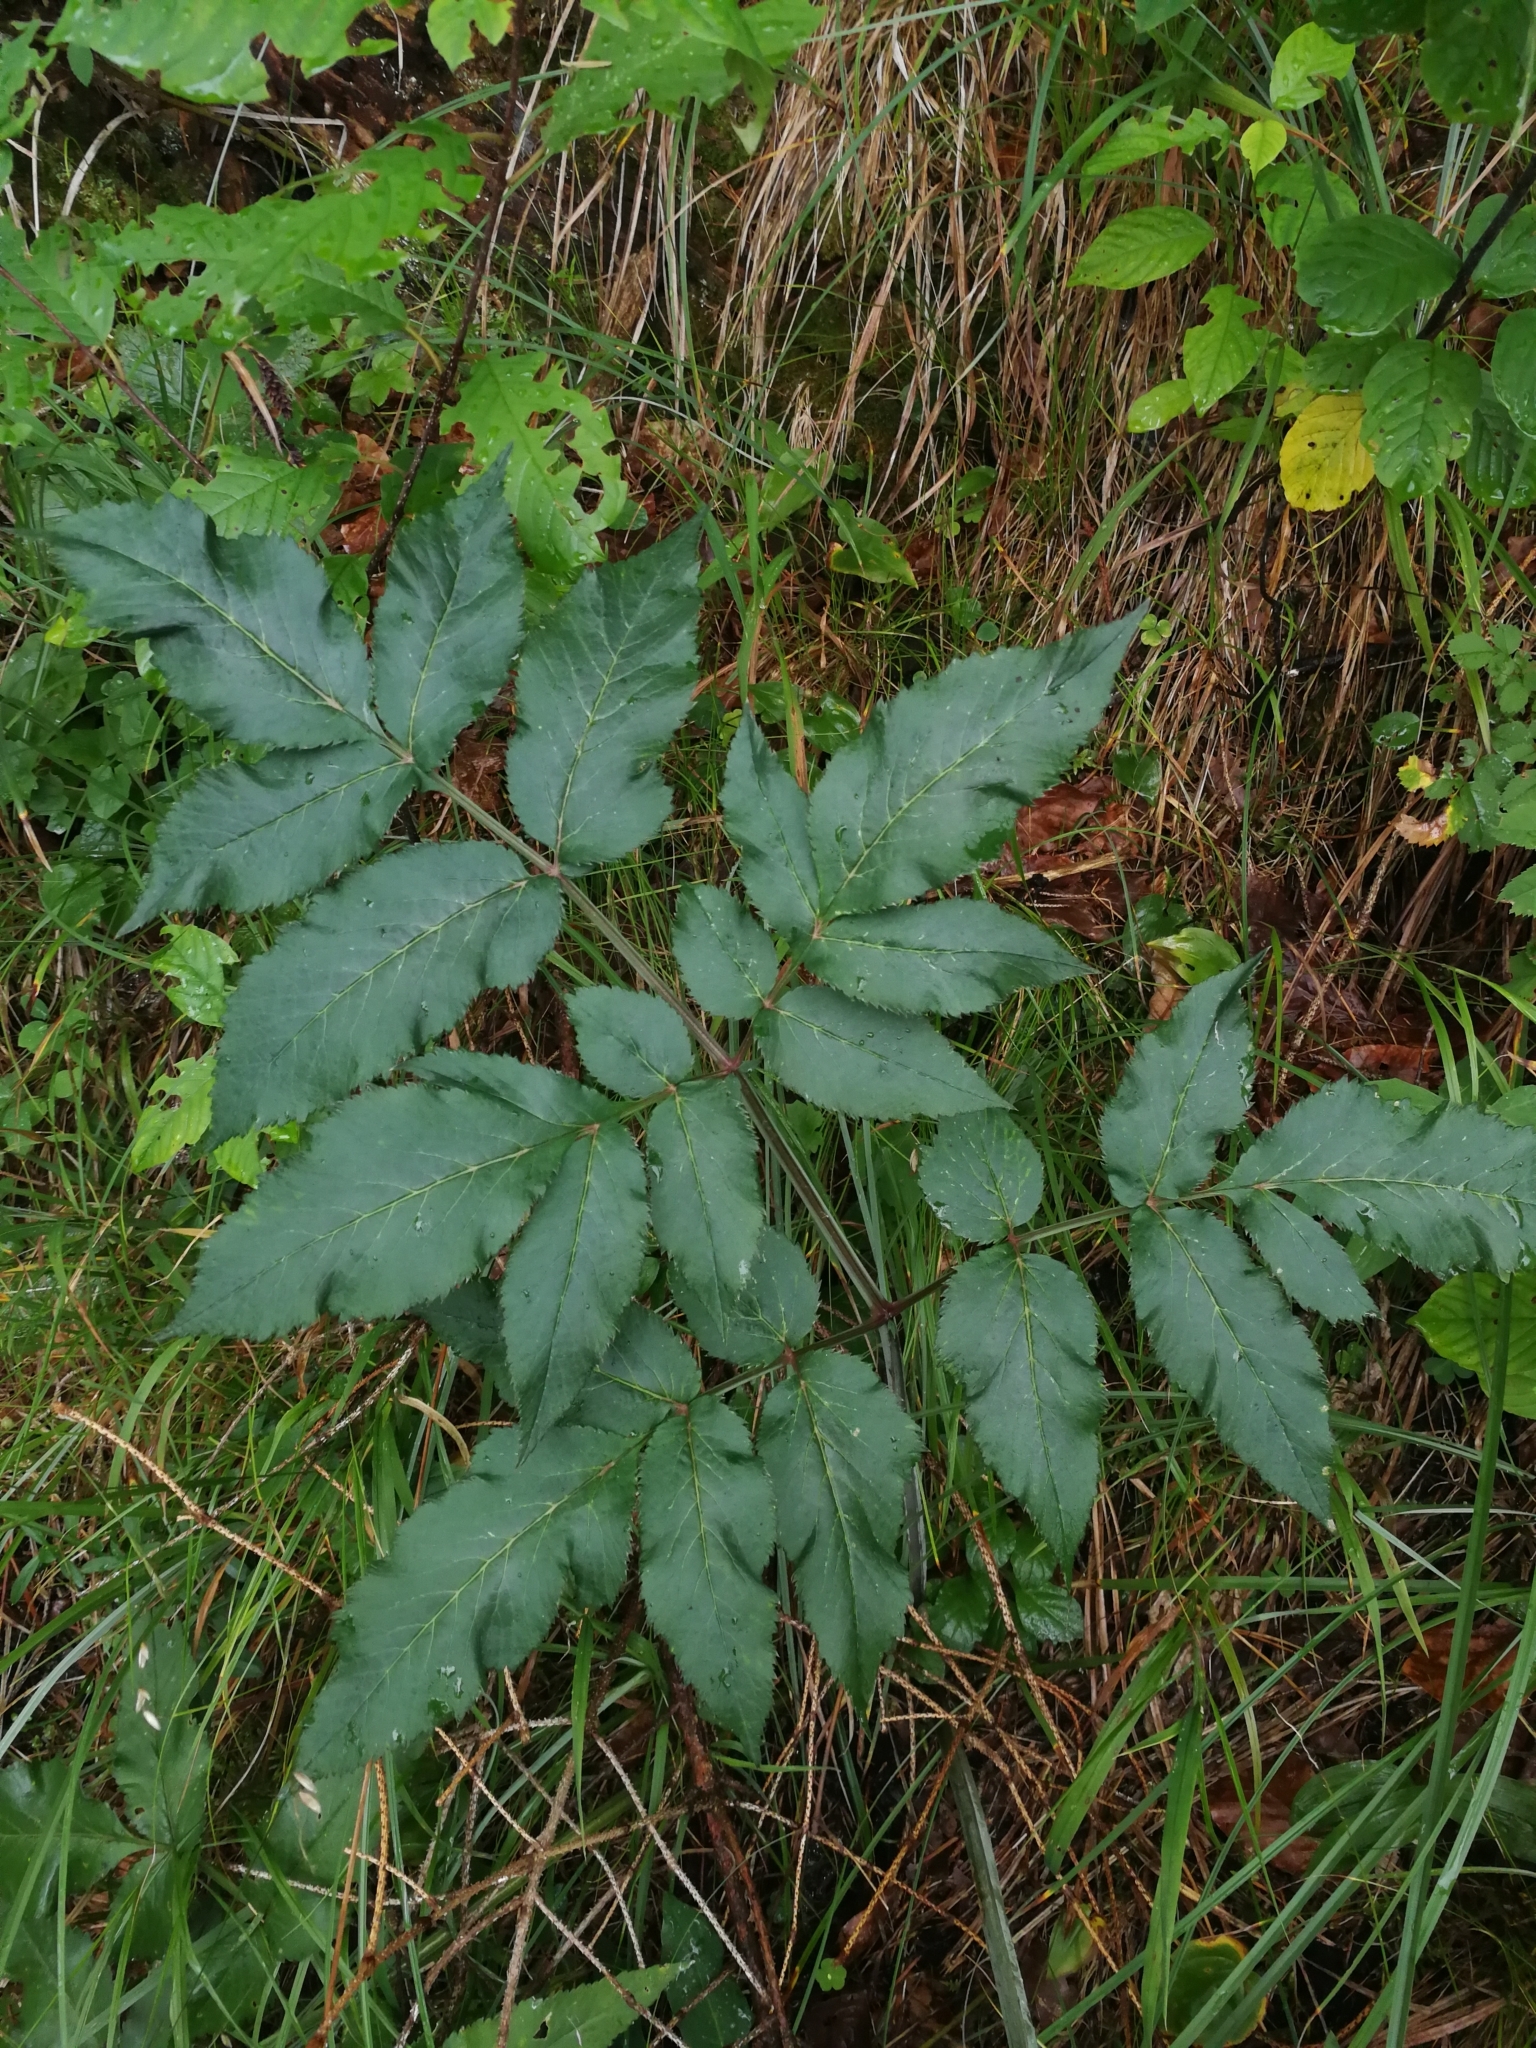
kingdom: Plantae
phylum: Tracheophyta
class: Magnoliopsida
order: Apiales
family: Apiaceae
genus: Angelica
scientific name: Angelica sylvestris
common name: Wild angelica
